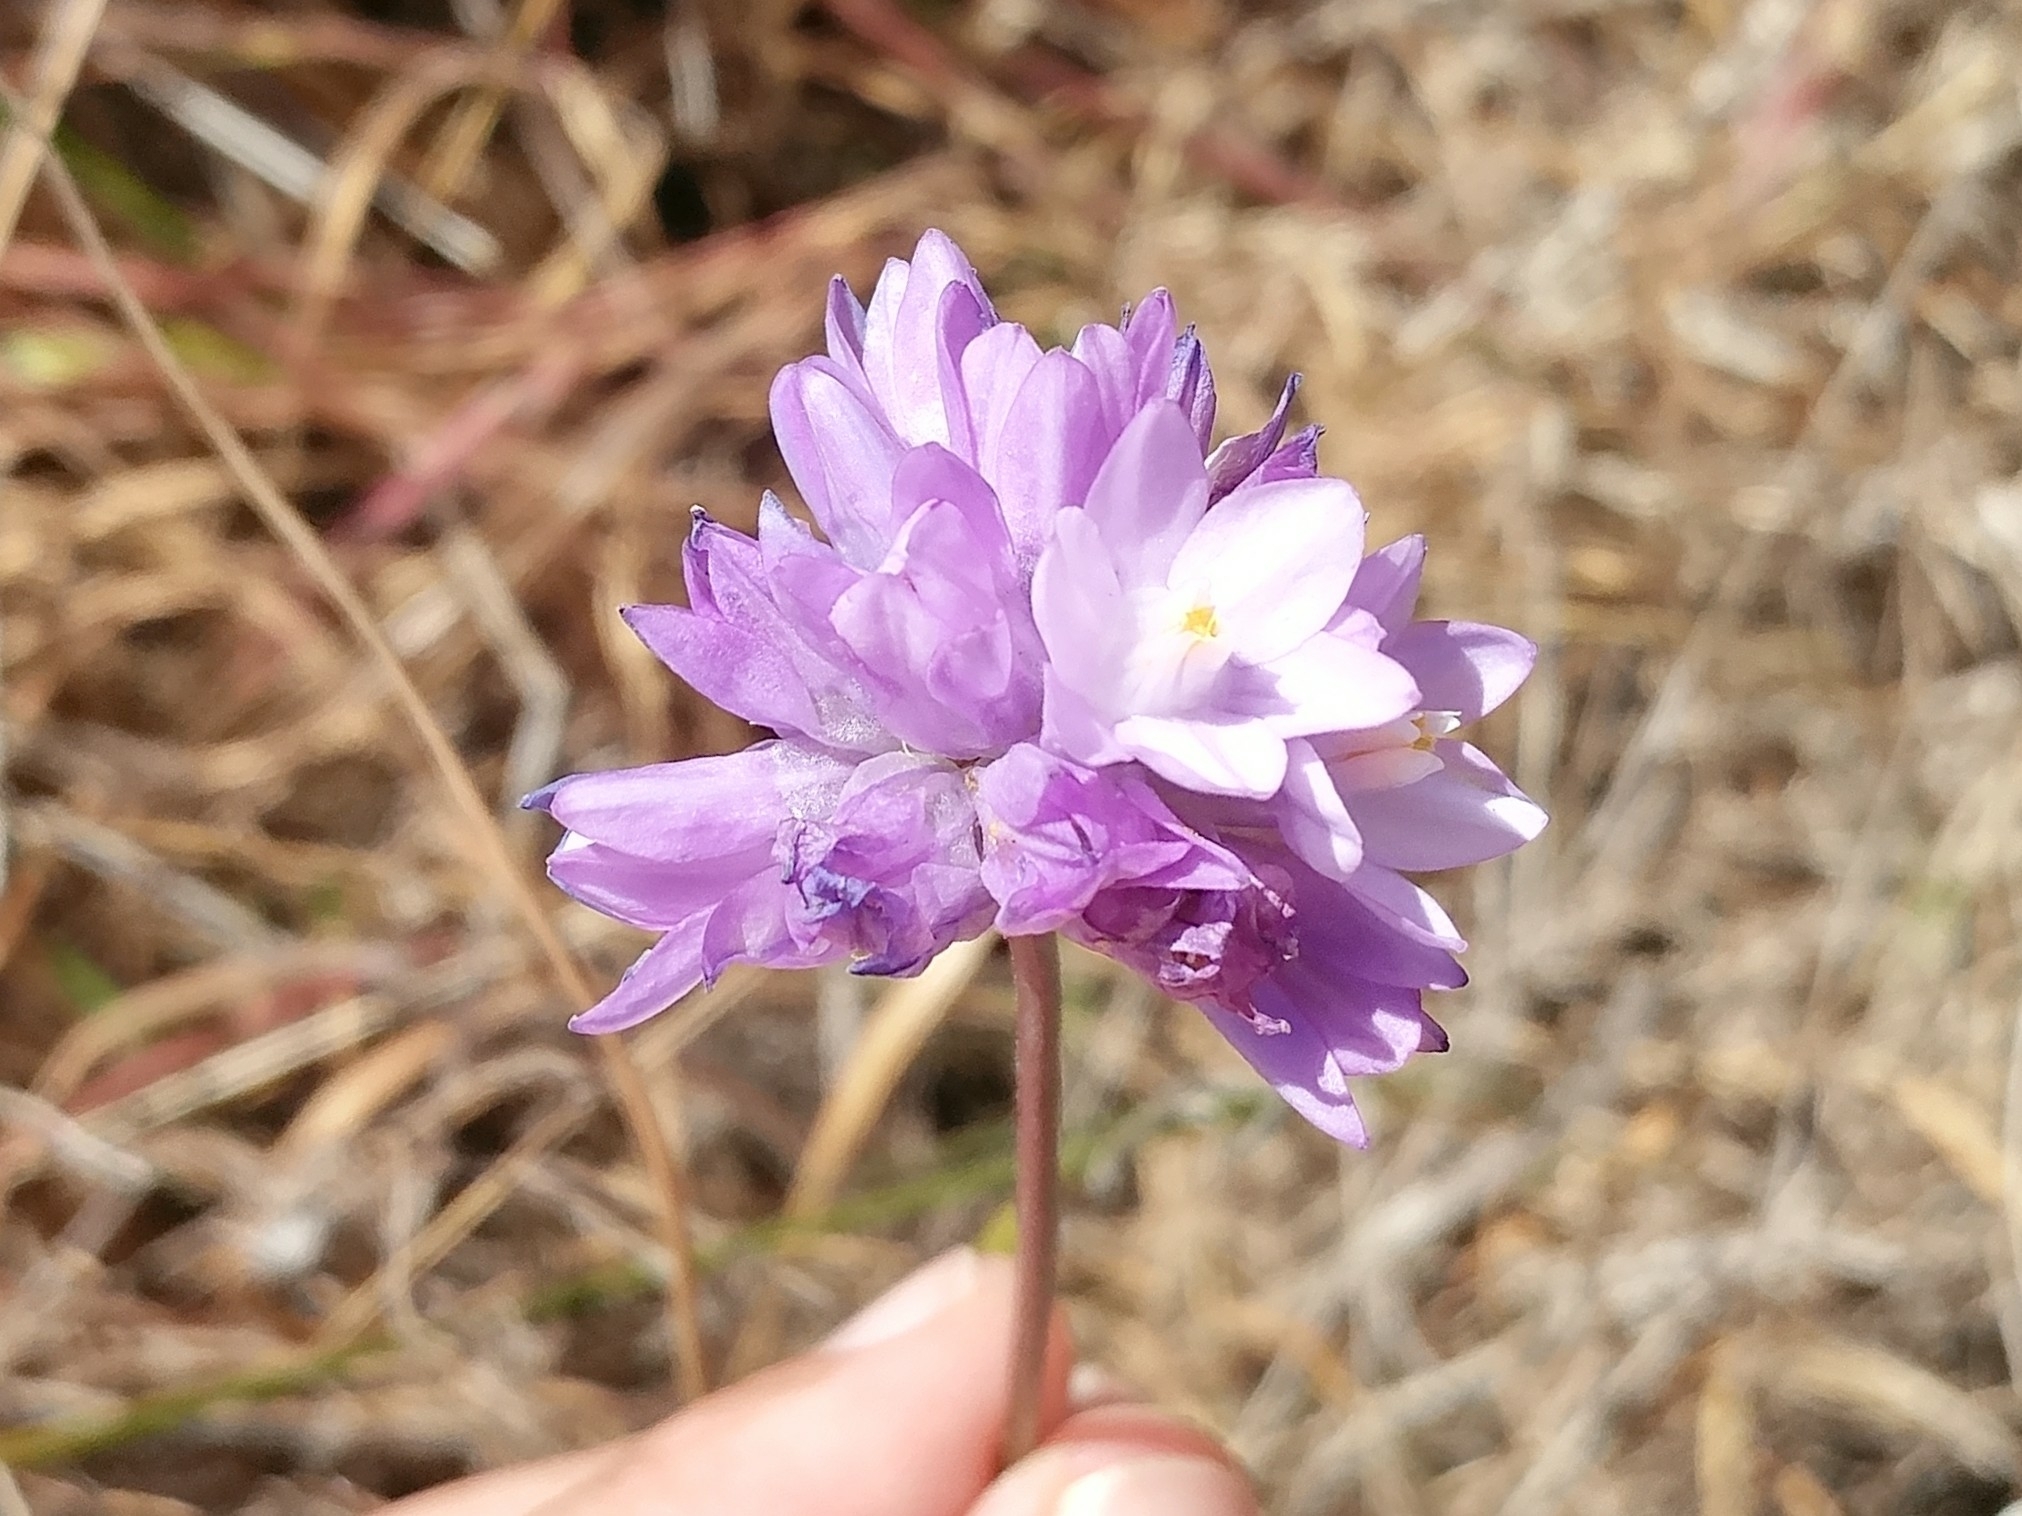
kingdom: Plantae
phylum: Tracheophyta
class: Liliopsida
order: Asparagales
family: Asparagaceae
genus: Dipterostemon
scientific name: Dipterostemon capitatus
